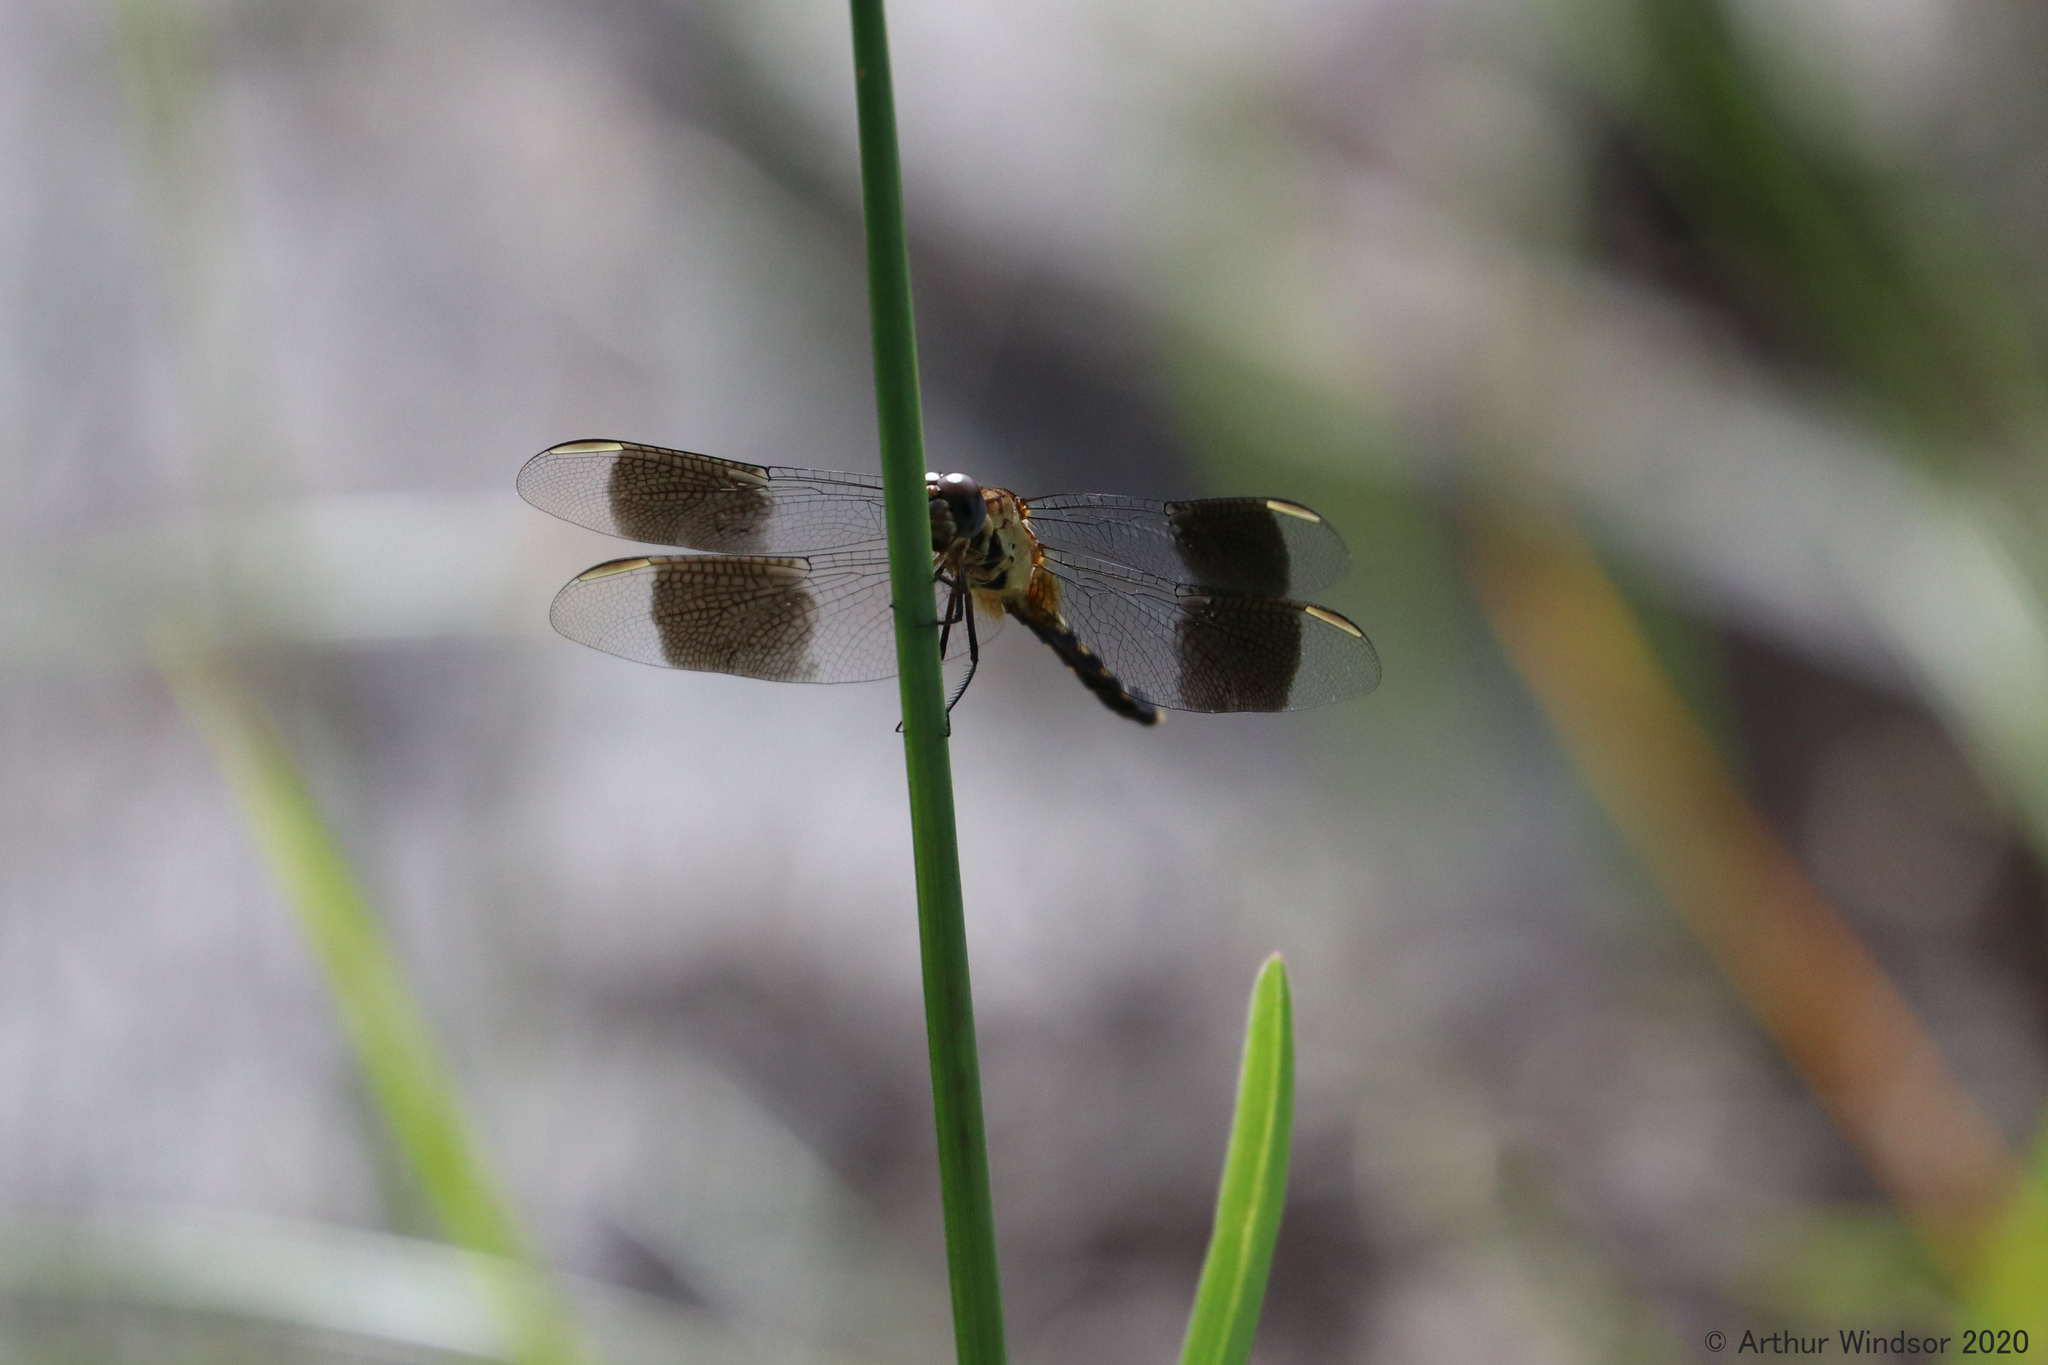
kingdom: Animalia
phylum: Arthropoda
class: Insecta
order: Odonata
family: Libellulidae
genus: Erythrodiplax
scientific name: Erythrodiplax umbrata
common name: Band-winged dragonlet
